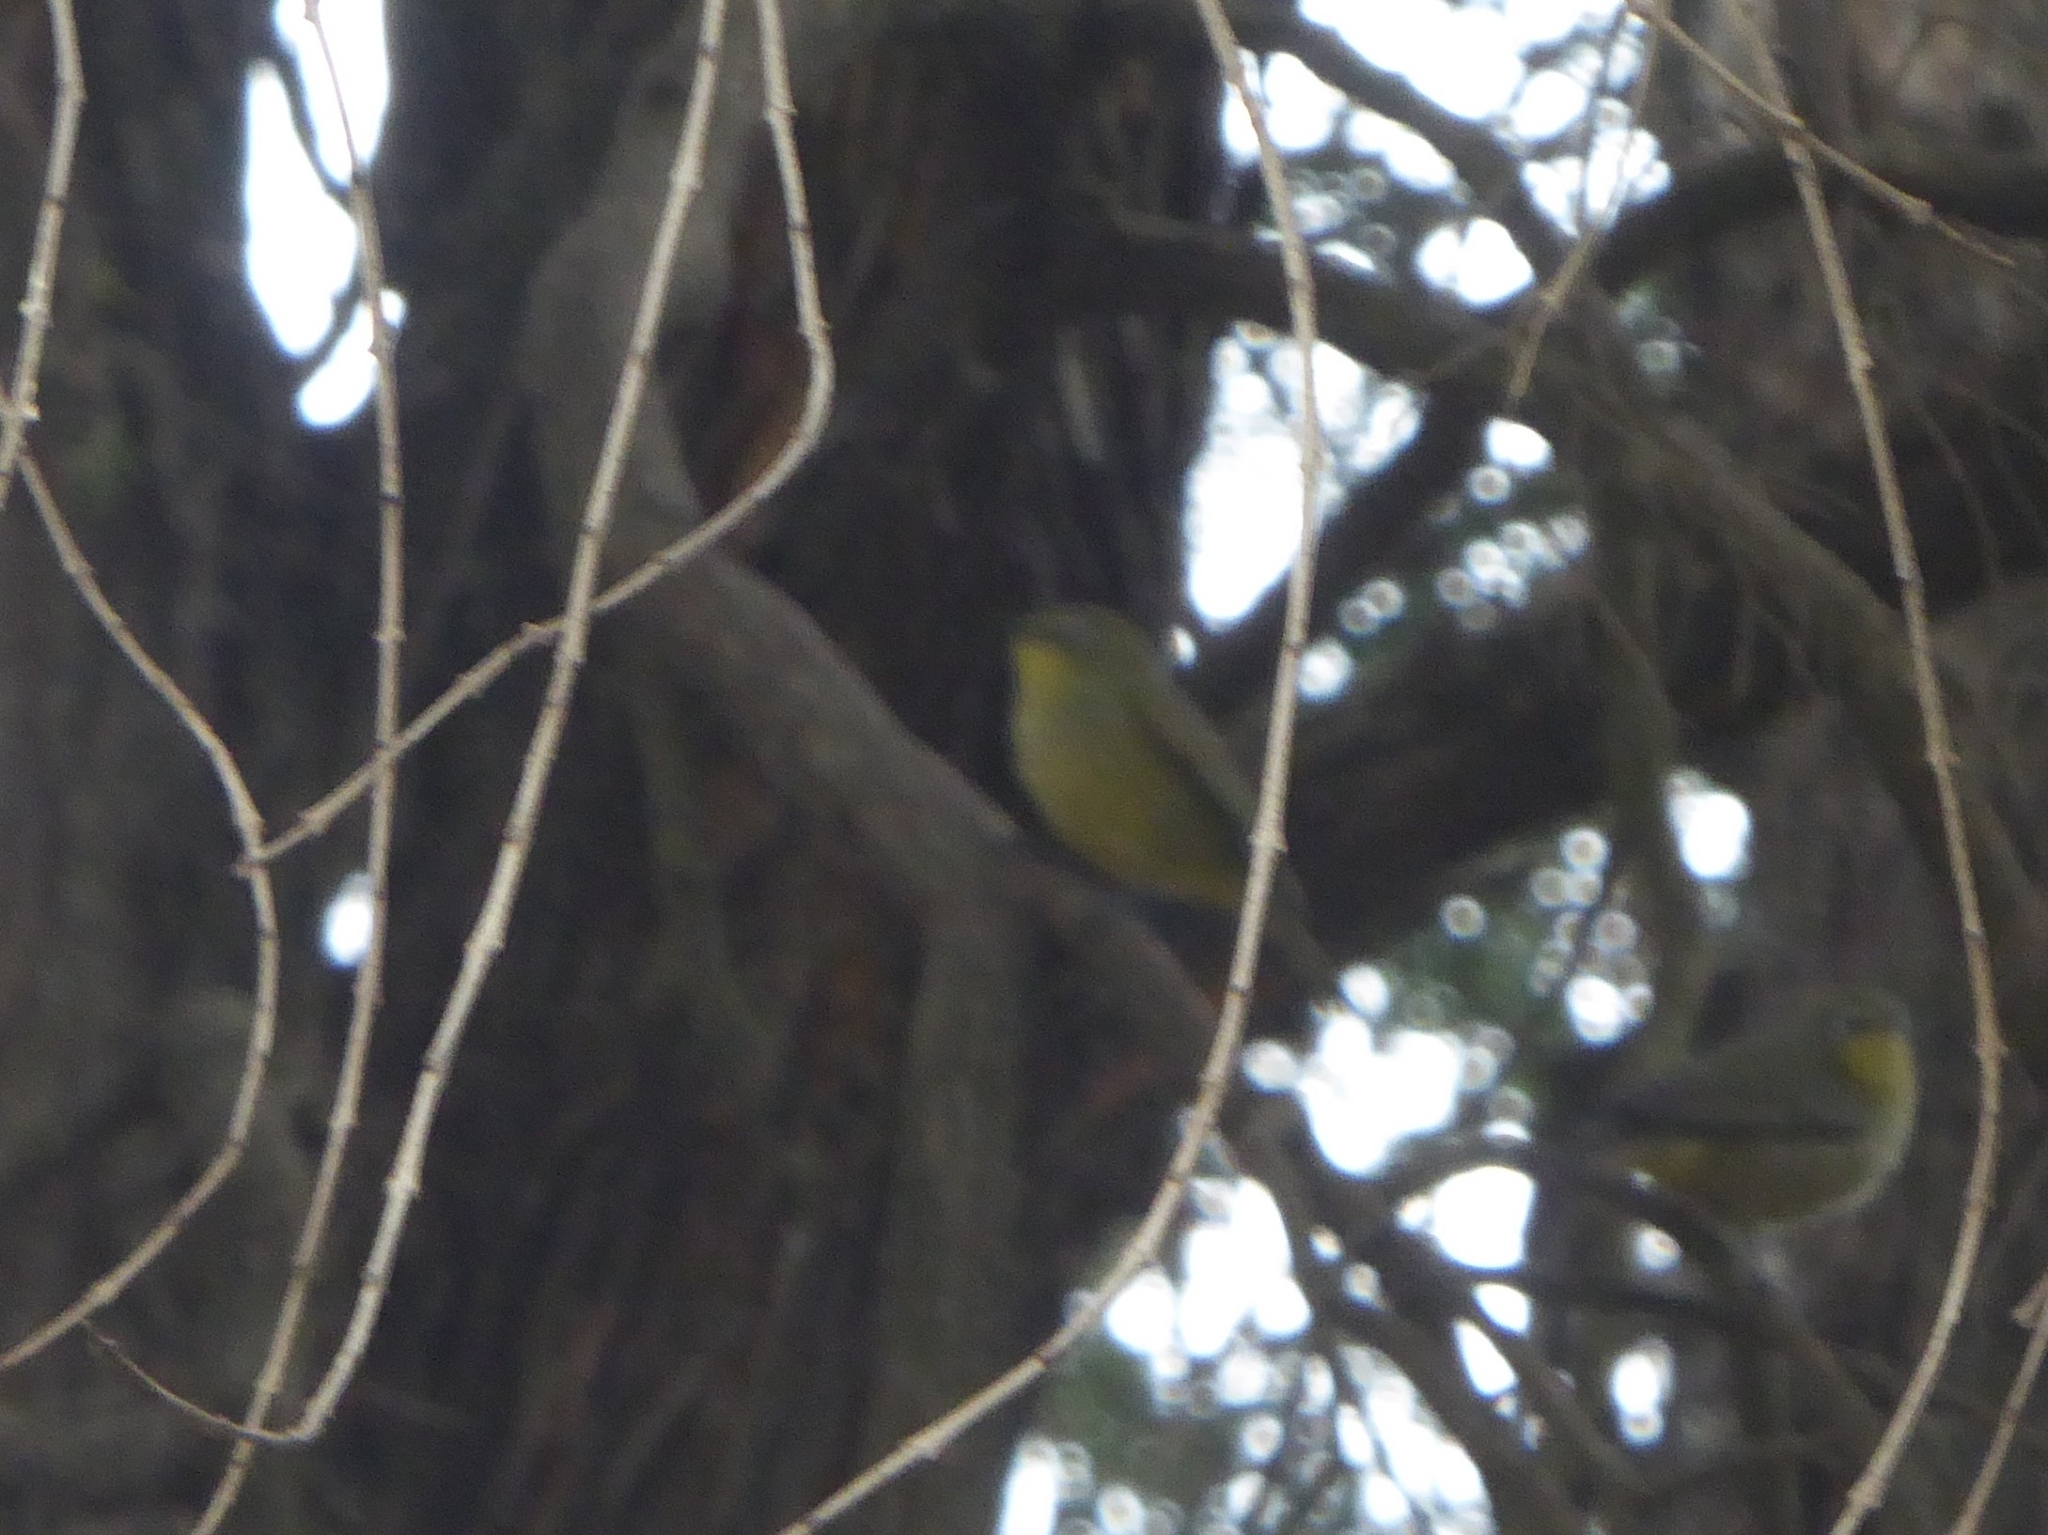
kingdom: Animalia
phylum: Chordata
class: Aves
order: Passeriformes
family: Zosteropidae
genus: Zosterops
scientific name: Zosterops virens
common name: Cape white-eye
